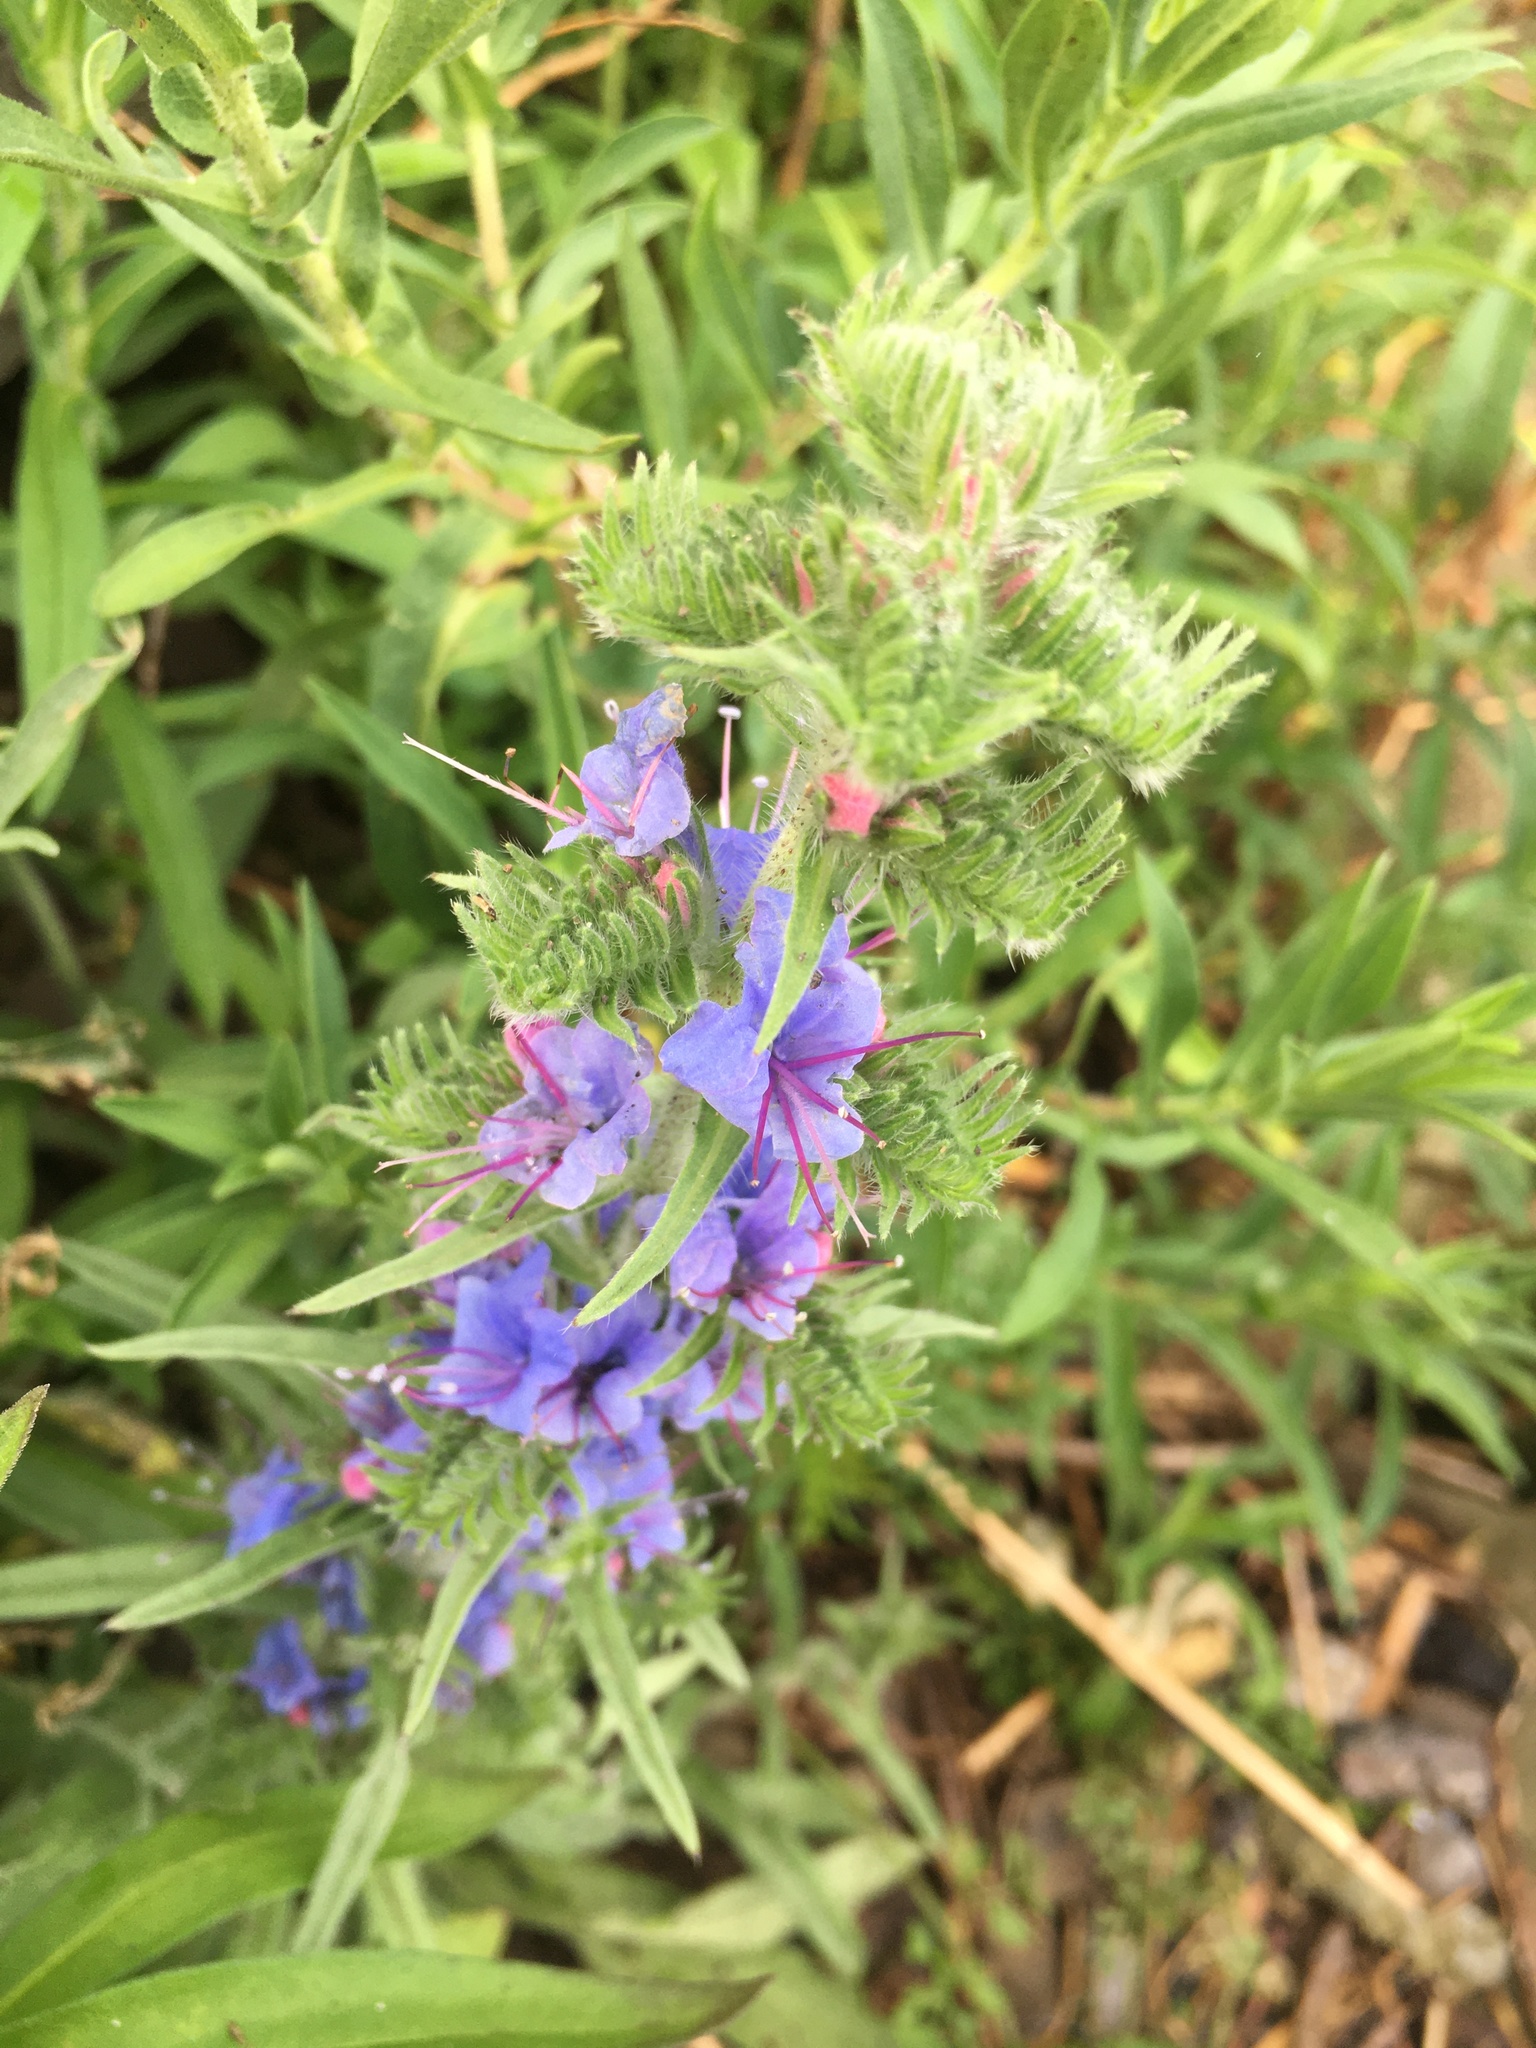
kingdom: Plantae
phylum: Tracheophyta
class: Magnoliopsida
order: Boraginales
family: Boraginaceae
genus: Echium
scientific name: Echium vulgare
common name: Common viper's bugloss
